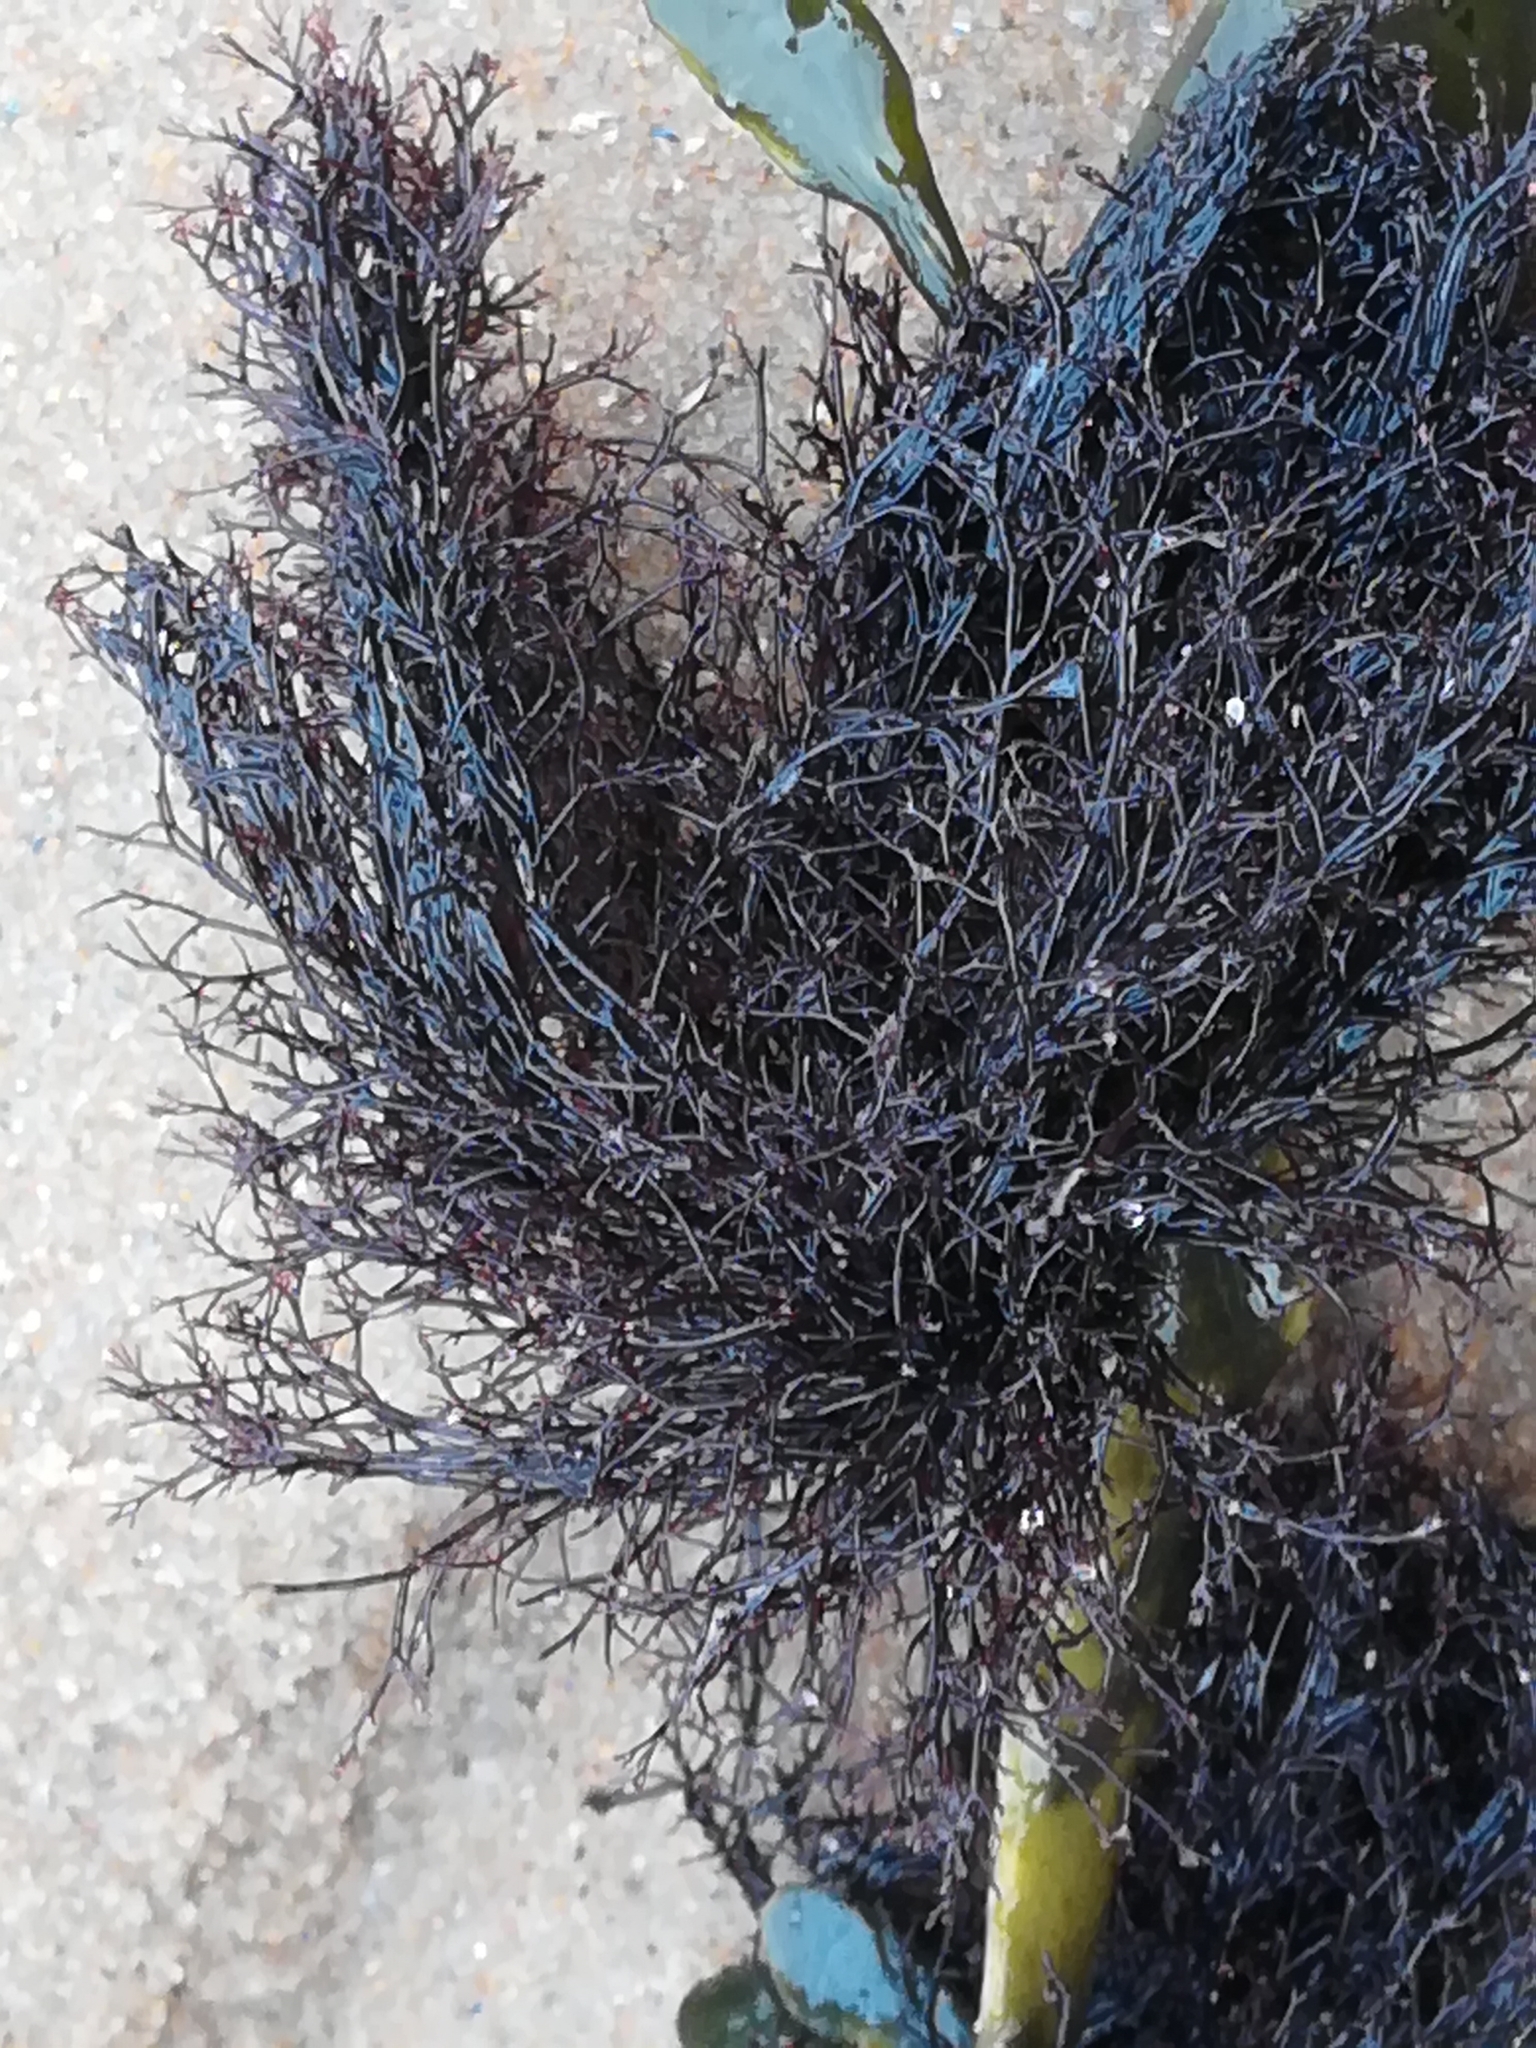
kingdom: Plantae
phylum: Rhodophyta
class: Florideophyceae
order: Ceramiales
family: Rhodomelaceae
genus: Vertebrata
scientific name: Vertebrata lanosa
